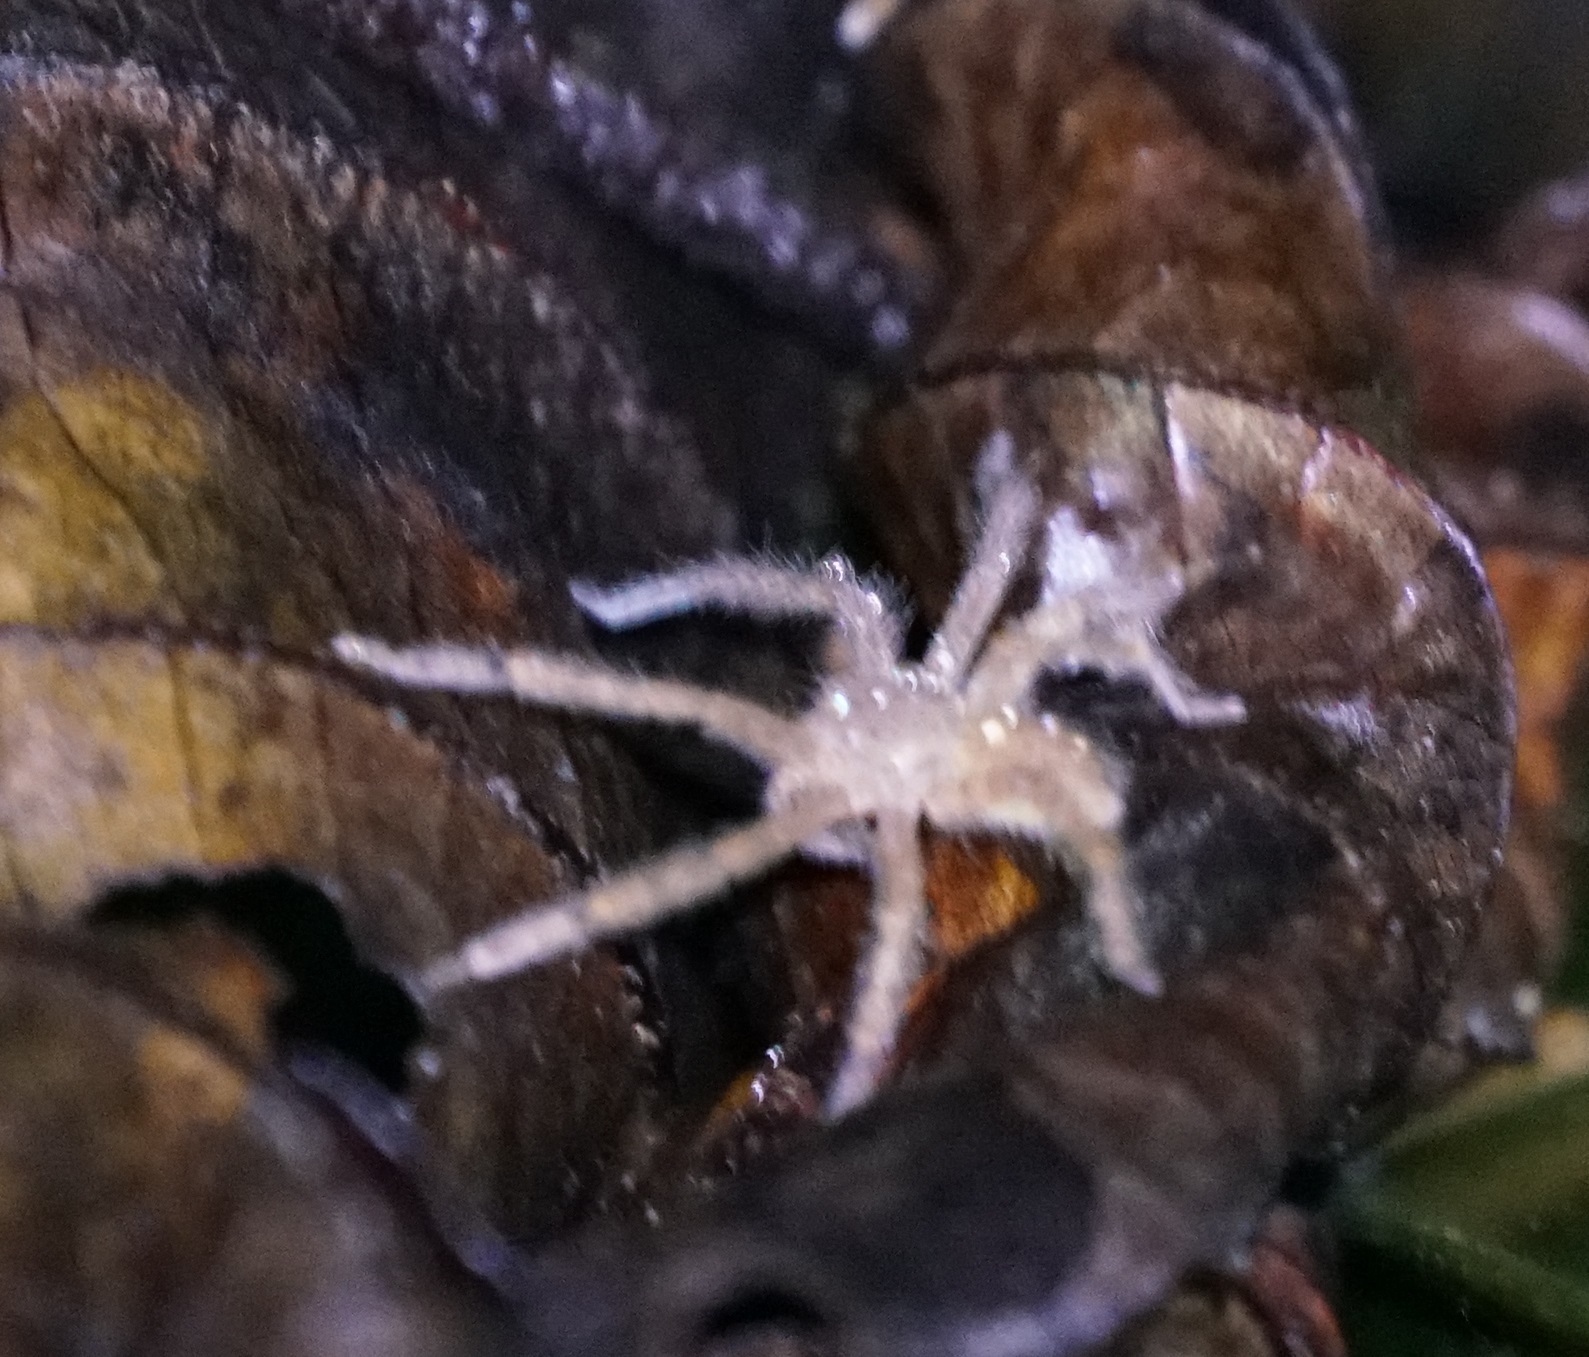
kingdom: Animalia
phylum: Arthropoda
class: Arachnida
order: Araneae
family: Sparassidae
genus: Heteropoda
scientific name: Heteropoda davidbowie
